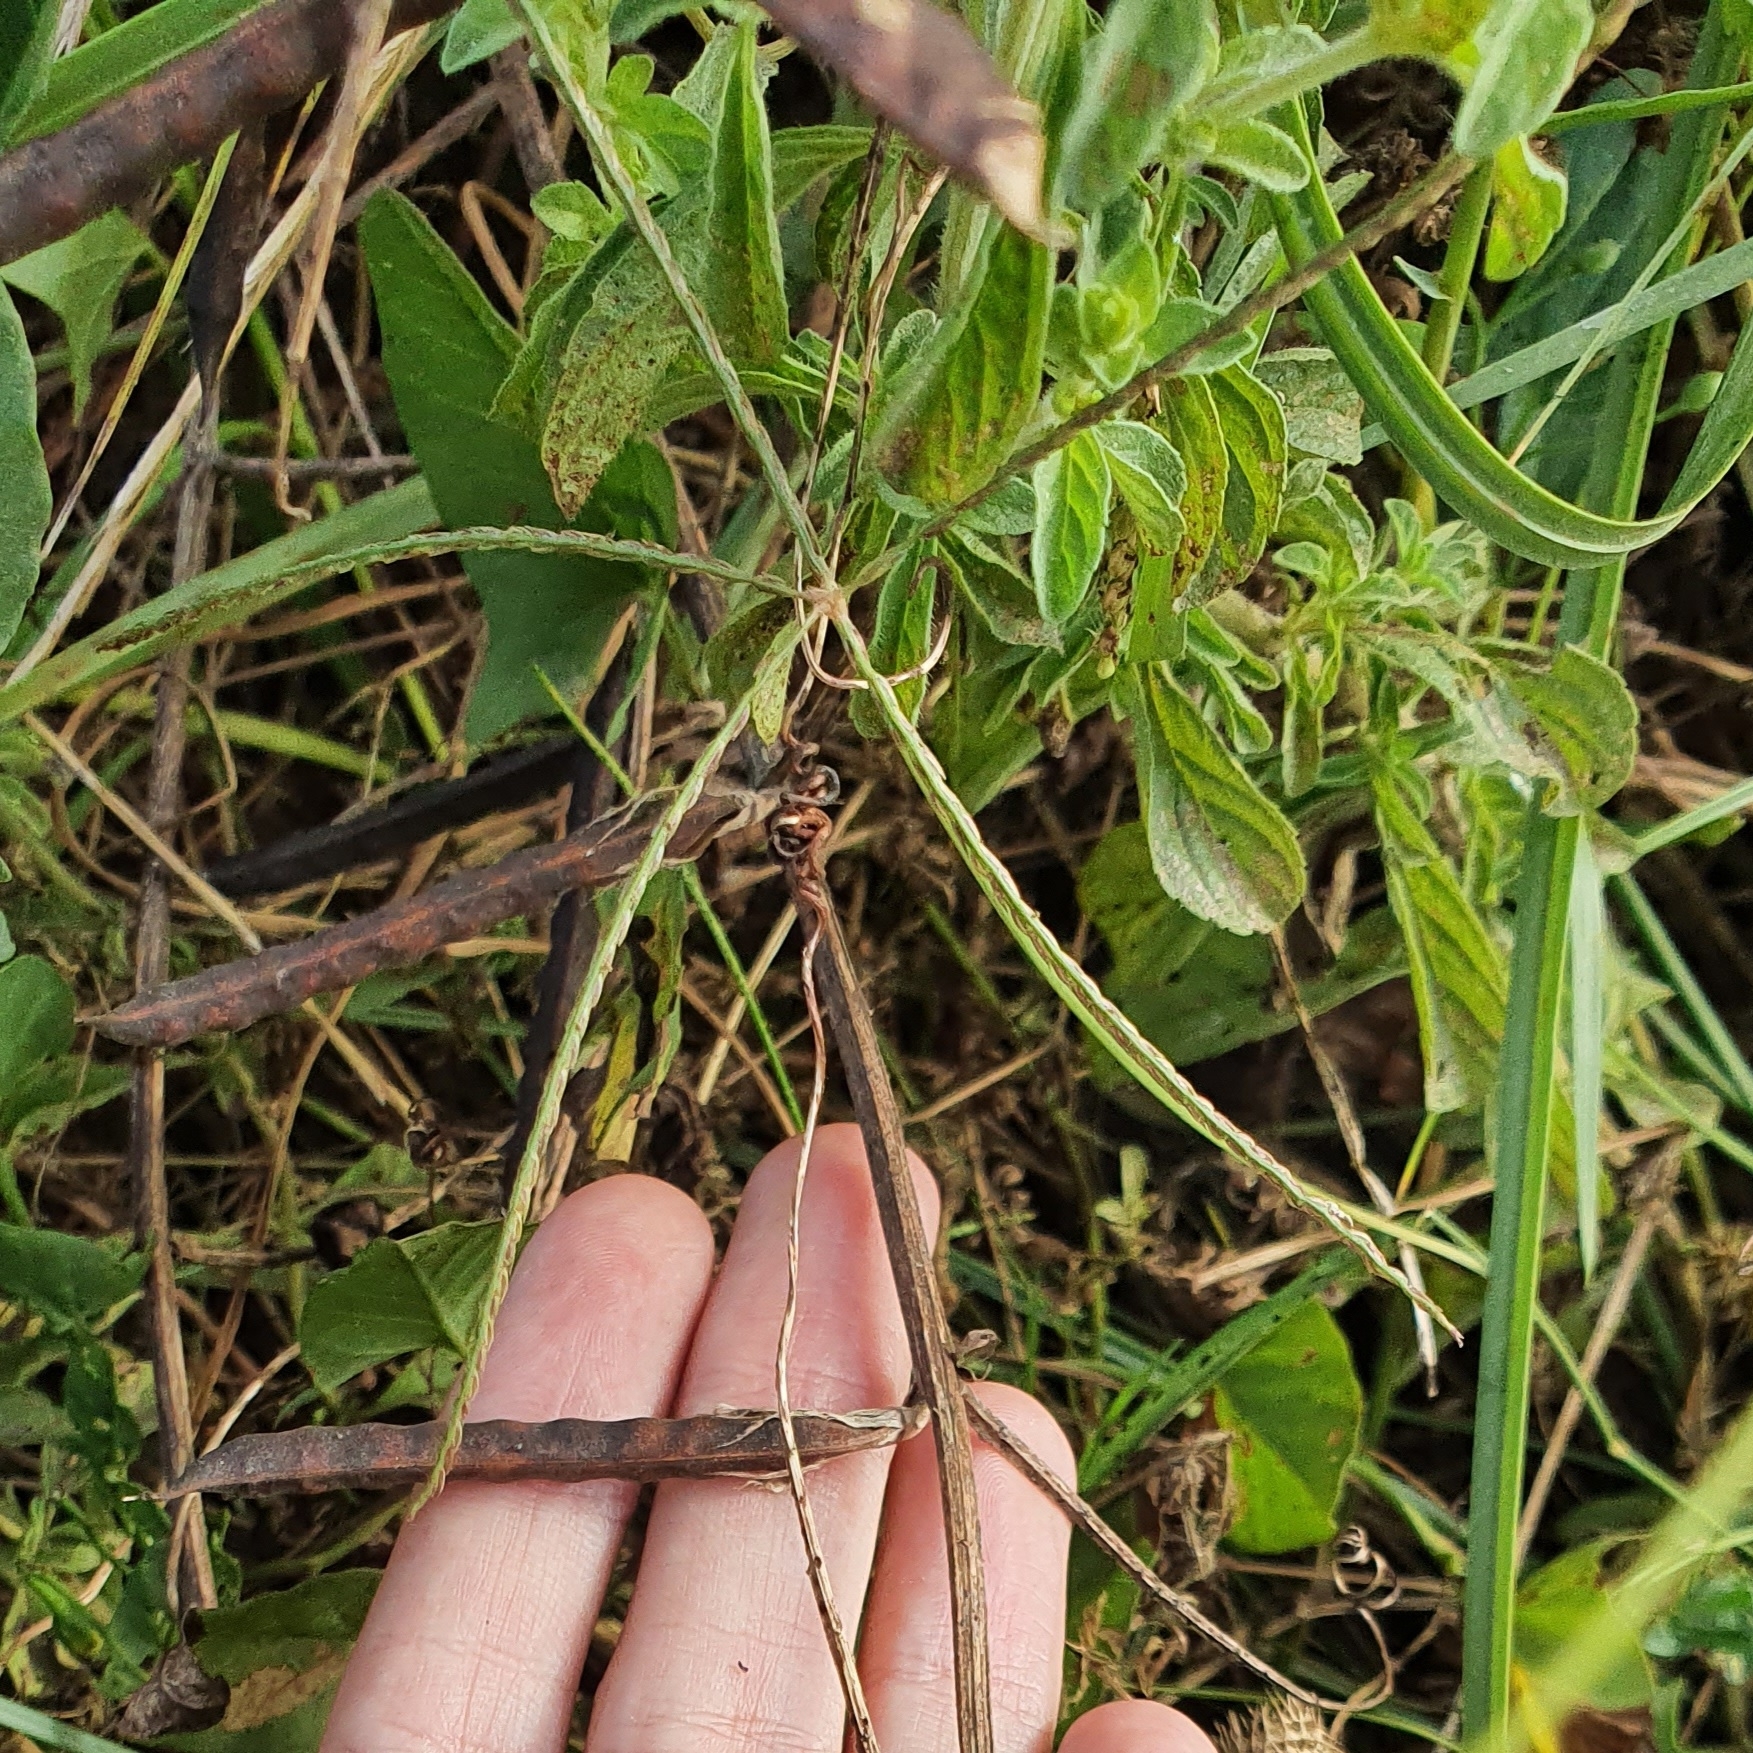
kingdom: Plantae
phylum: Tracheophyta
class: Liliopsida
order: Poales
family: Poaceae
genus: Cynodon
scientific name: Cynodon dactylon
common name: Bermuda grass
